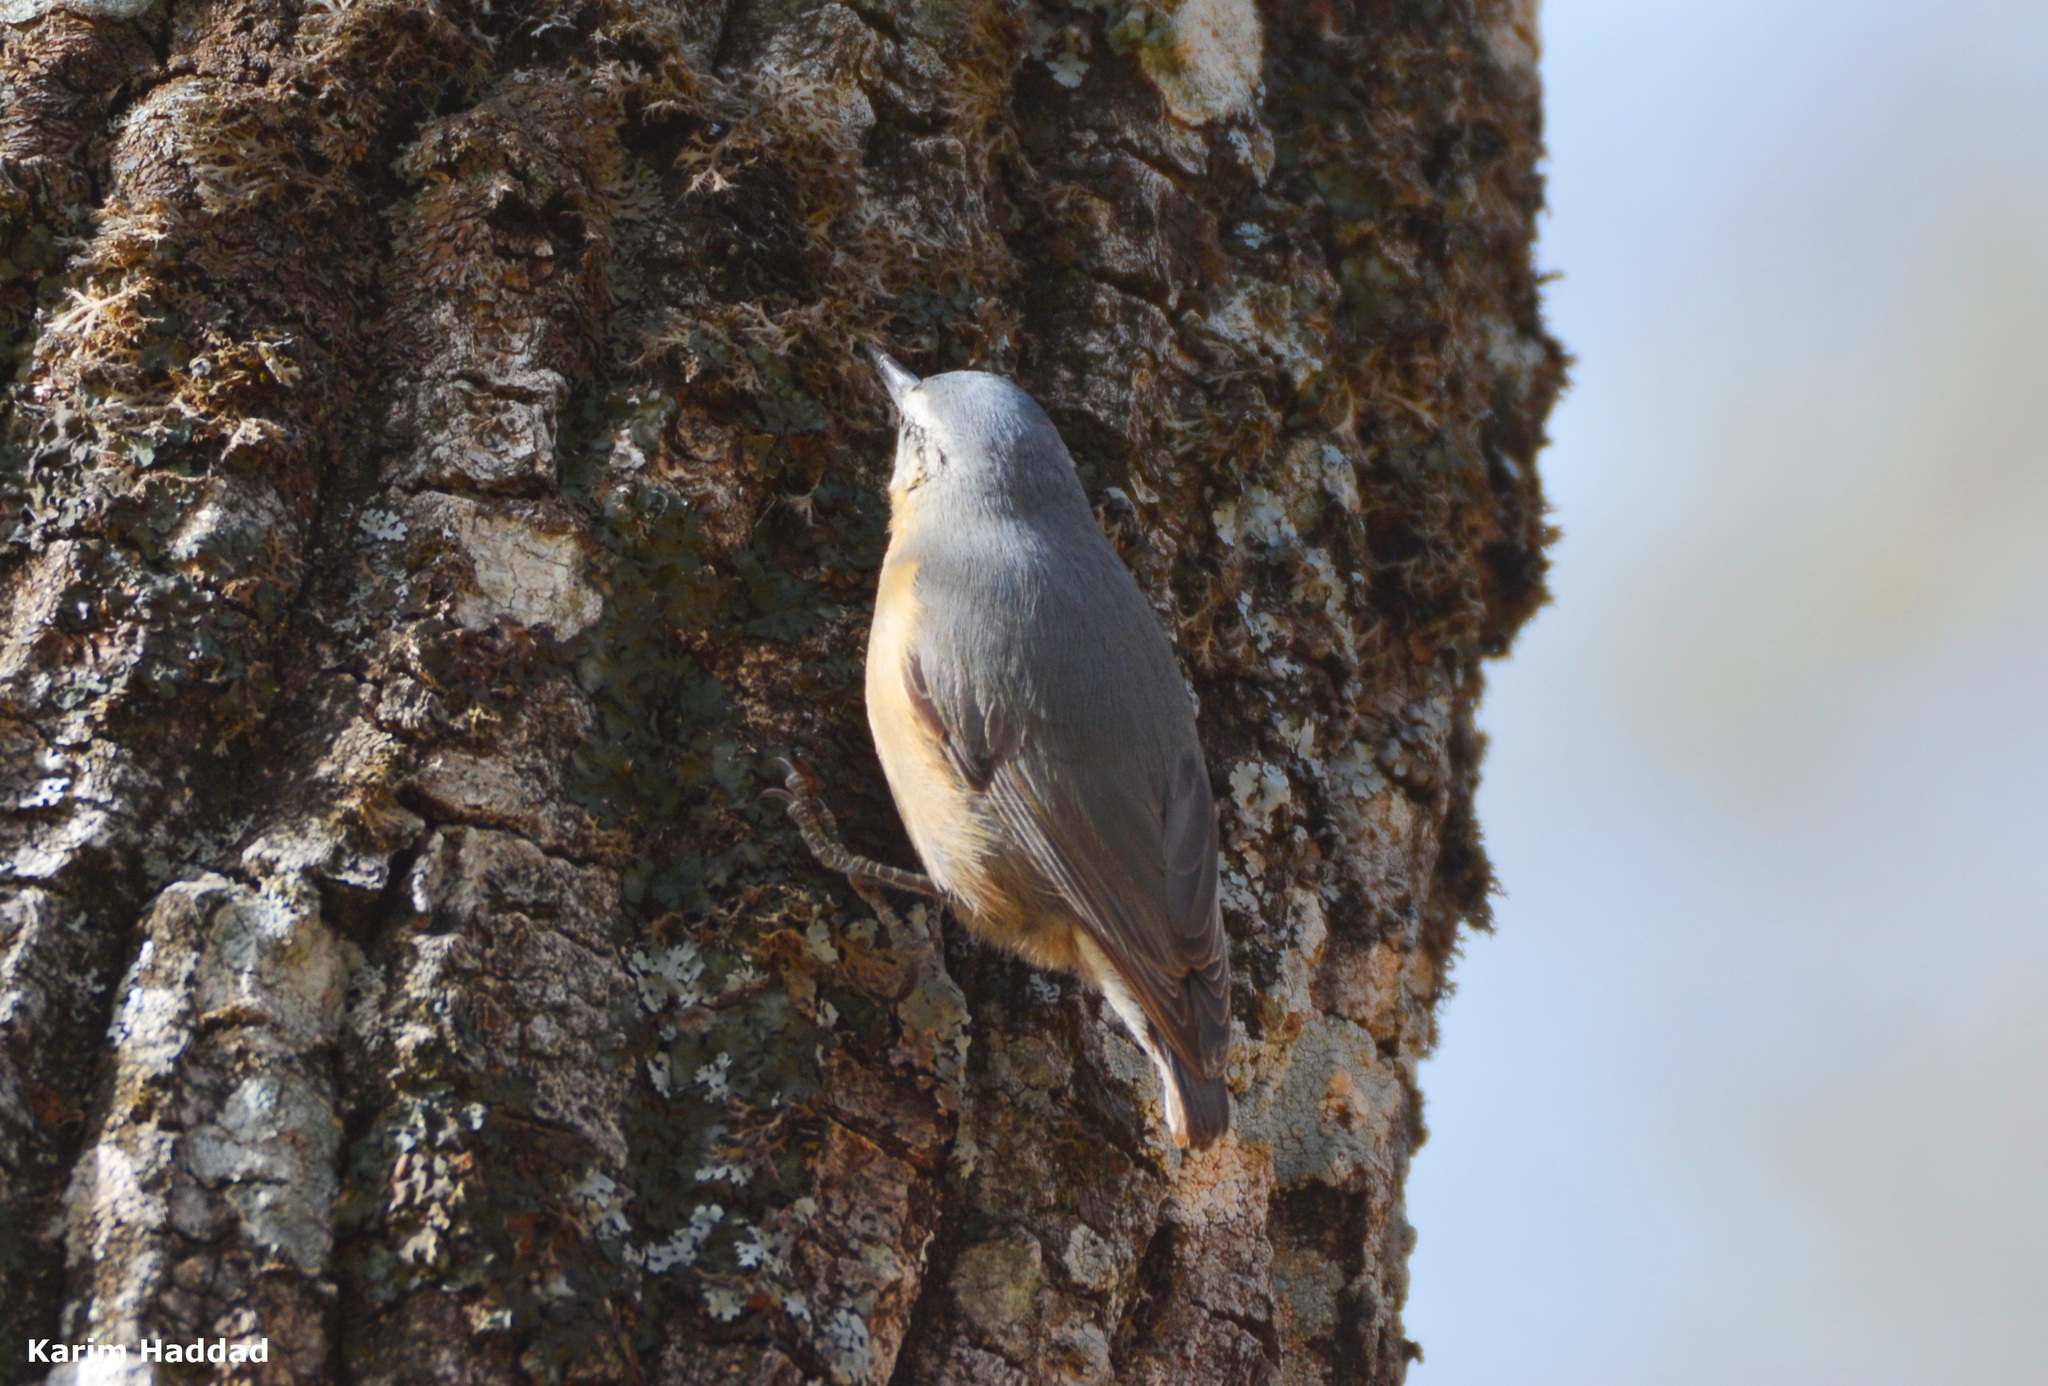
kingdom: Animalia
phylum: Chordata
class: Aves
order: Passeriformes
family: Sittidae
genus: Sitta
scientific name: Sitta ledanti
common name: Algerian nuthatch
